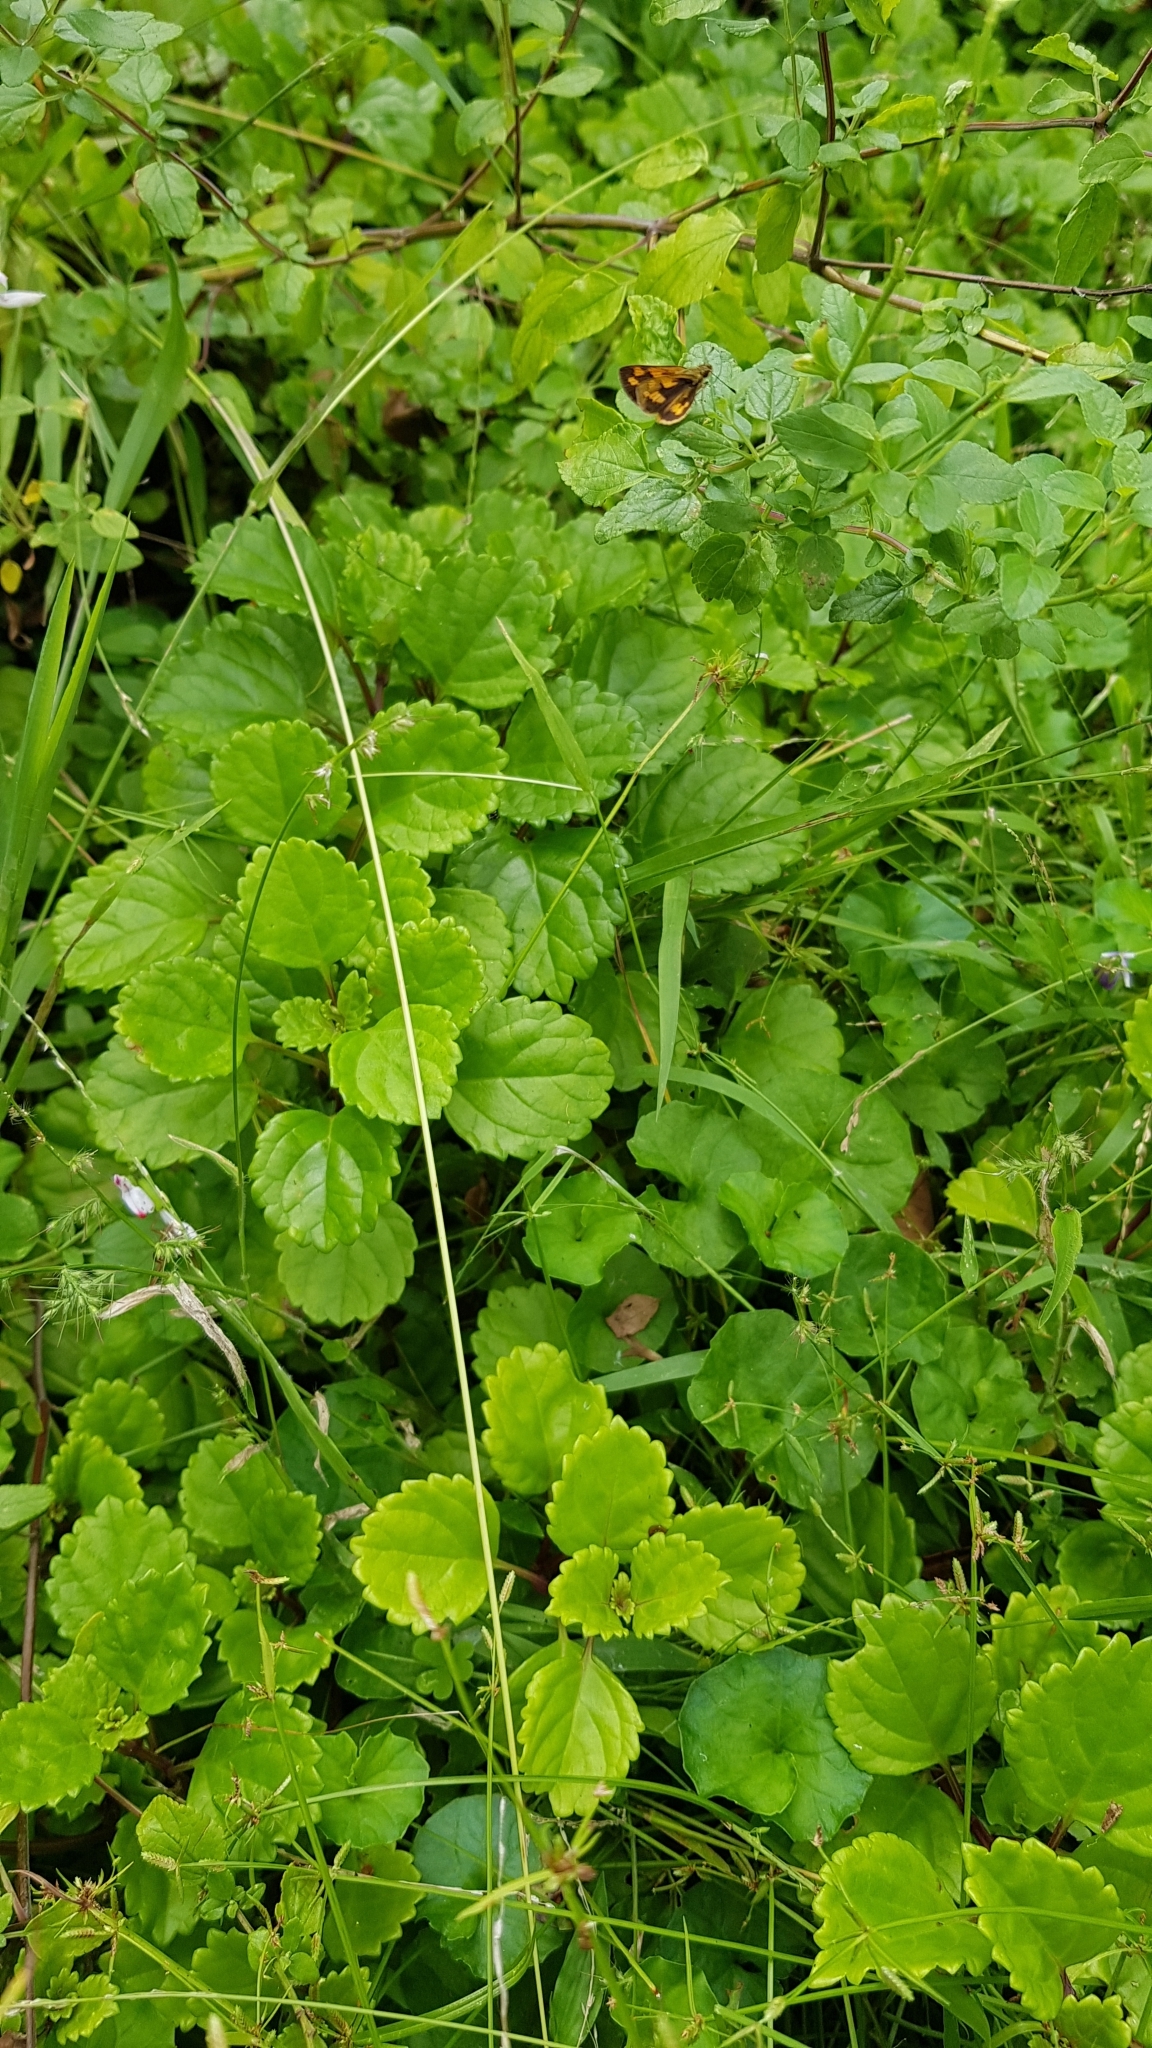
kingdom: Animalia
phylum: Arthropoda
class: Insecta
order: Lepidoptera
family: Hesperiidae
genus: Ocybadistes
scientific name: Ocybadistes walkeri
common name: Yellow-banded dart
